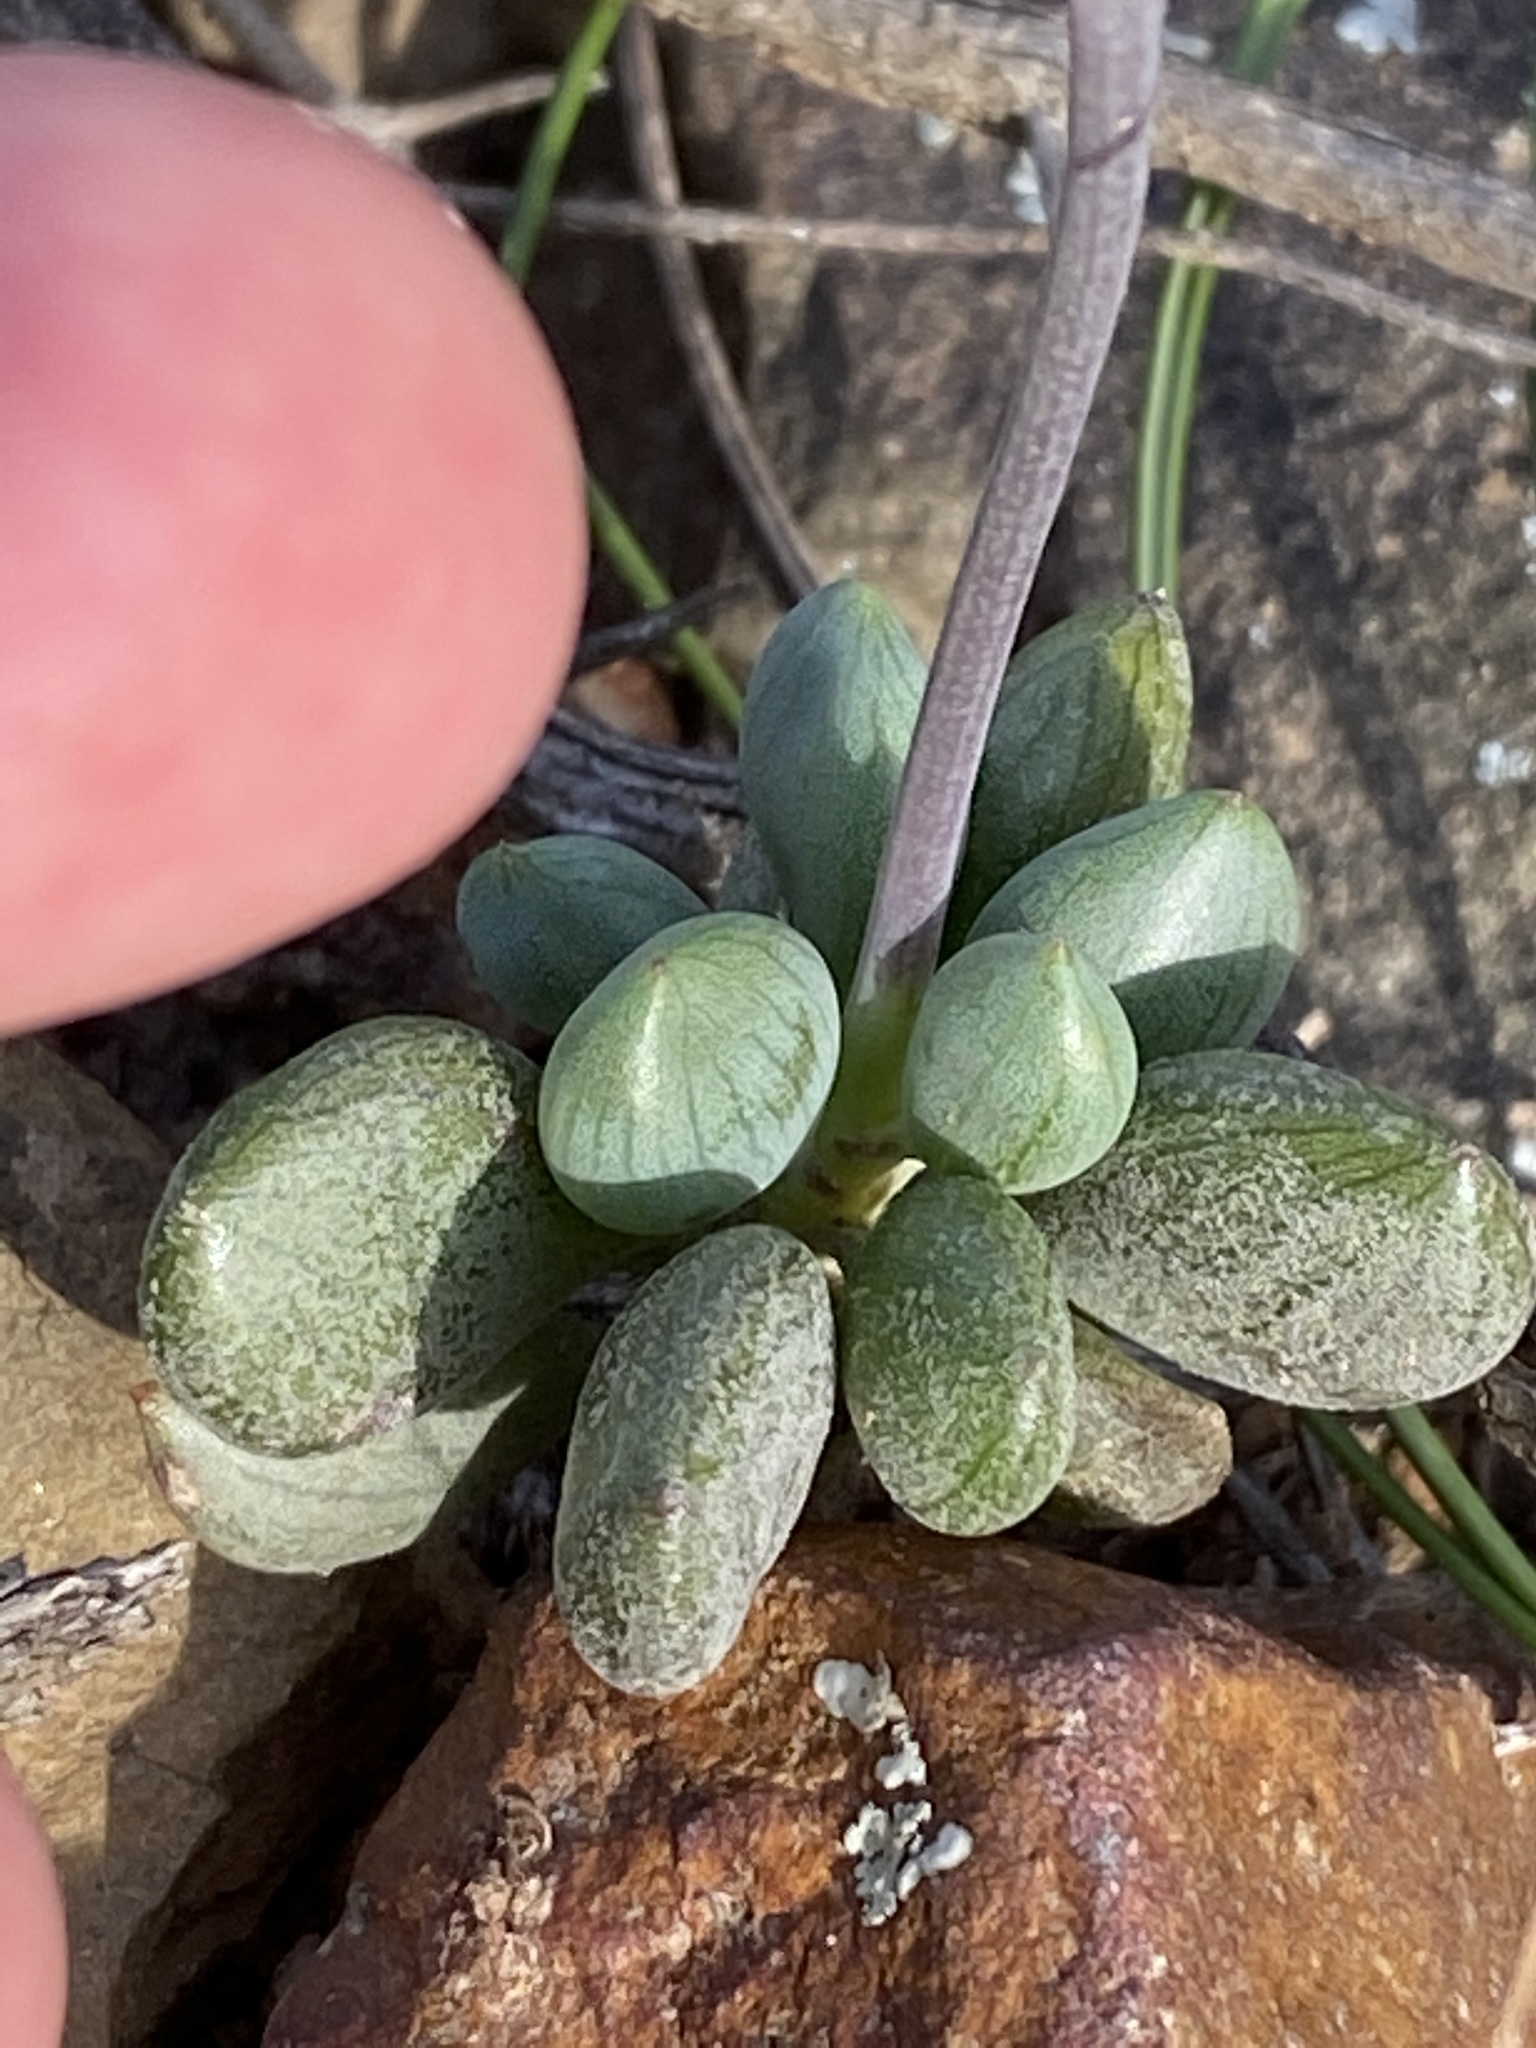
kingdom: Plantae
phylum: Tracheophyta
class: Magnoliopsida
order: Asterales
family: Asteraceae
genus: Curio
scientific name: Curio archeri
